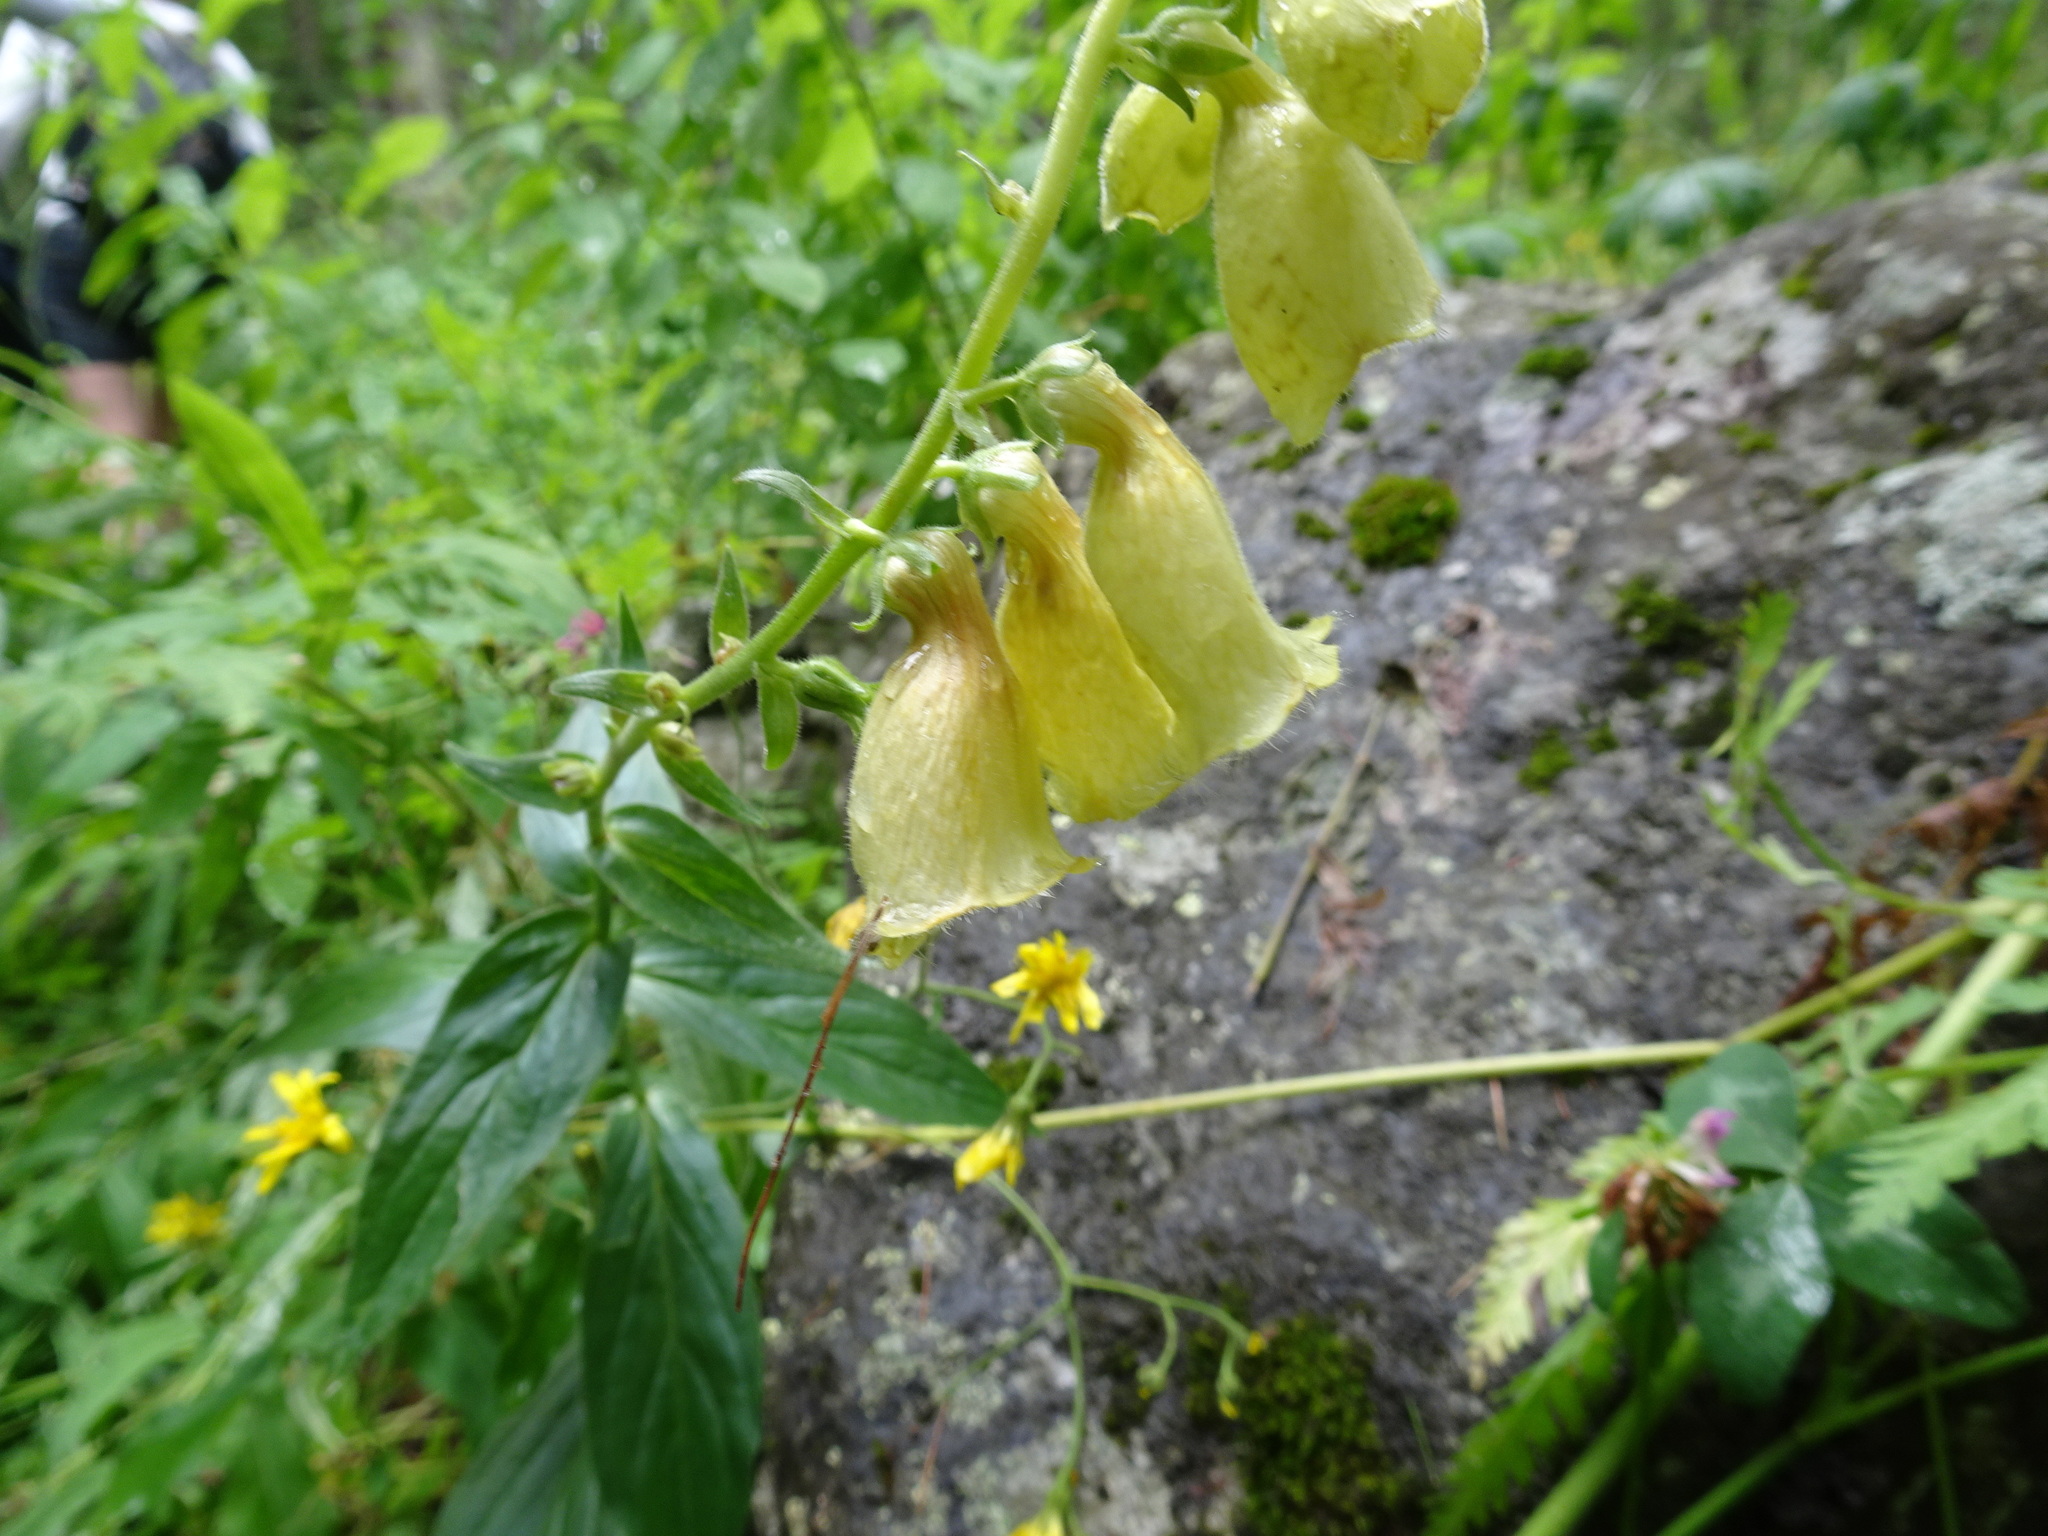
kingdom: Plantae
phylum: Tracheophyta
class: Magnoliopsida
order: Lamiales
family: Plantaginaceae
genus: Digitalis
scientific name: Digitalis grandiflora
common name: Yellow foxglove
